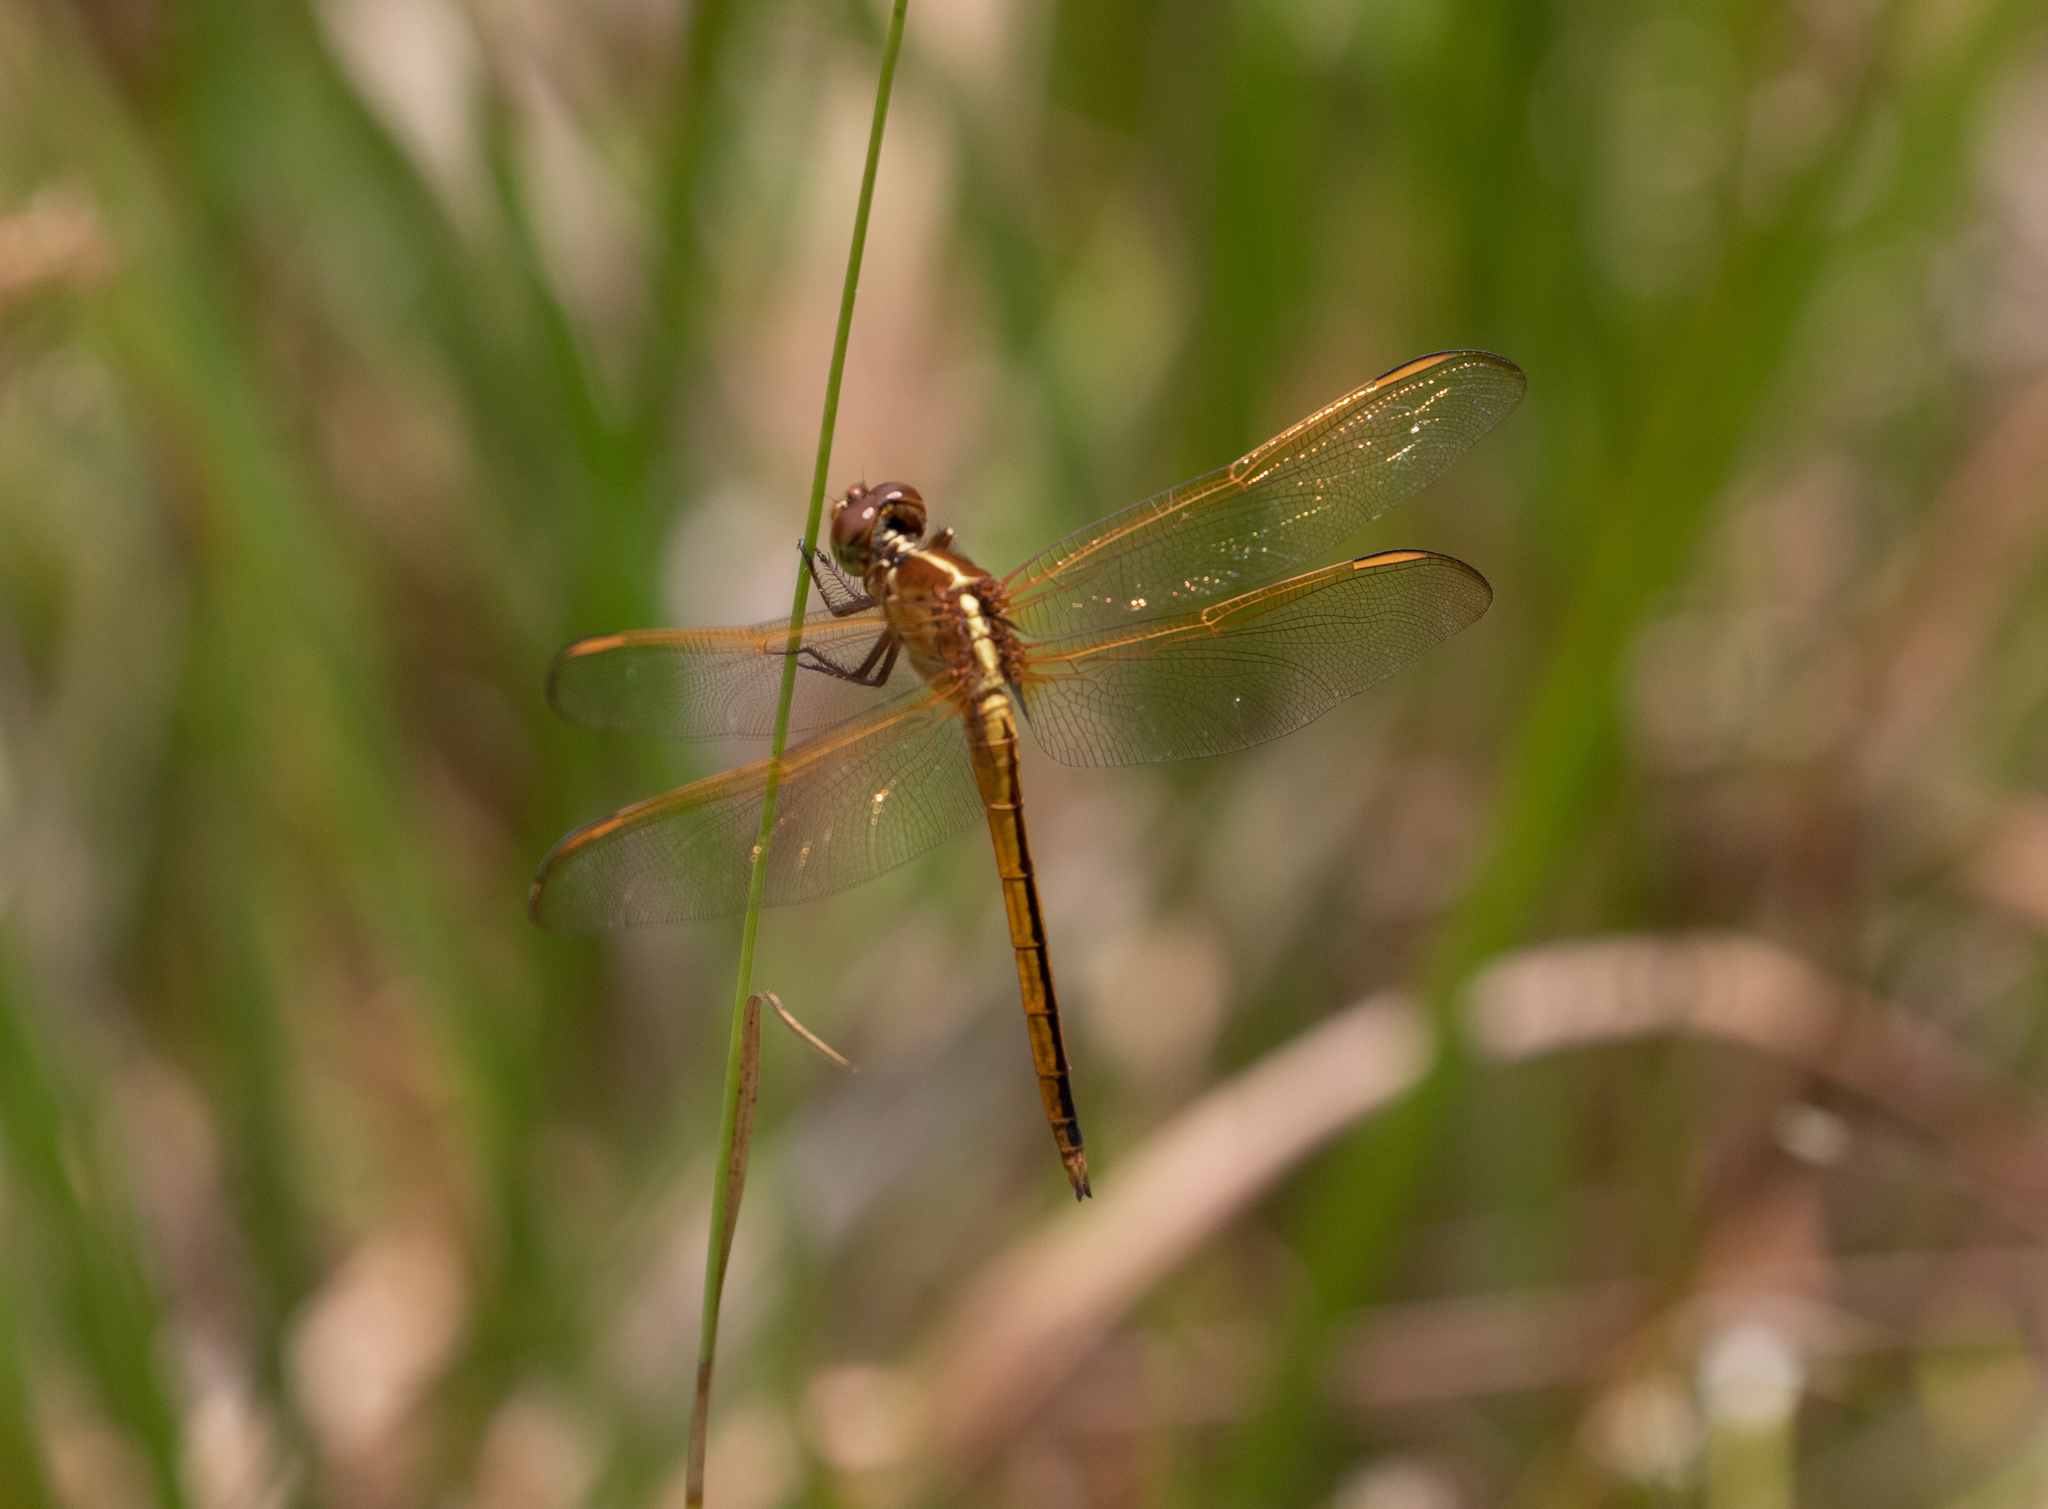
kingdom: Animalia
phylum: Arthropoda
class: Insecta
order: Odonata
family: Libellulidae
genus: Libellula
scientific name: Libellula needhami
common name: Needham's skimmer
